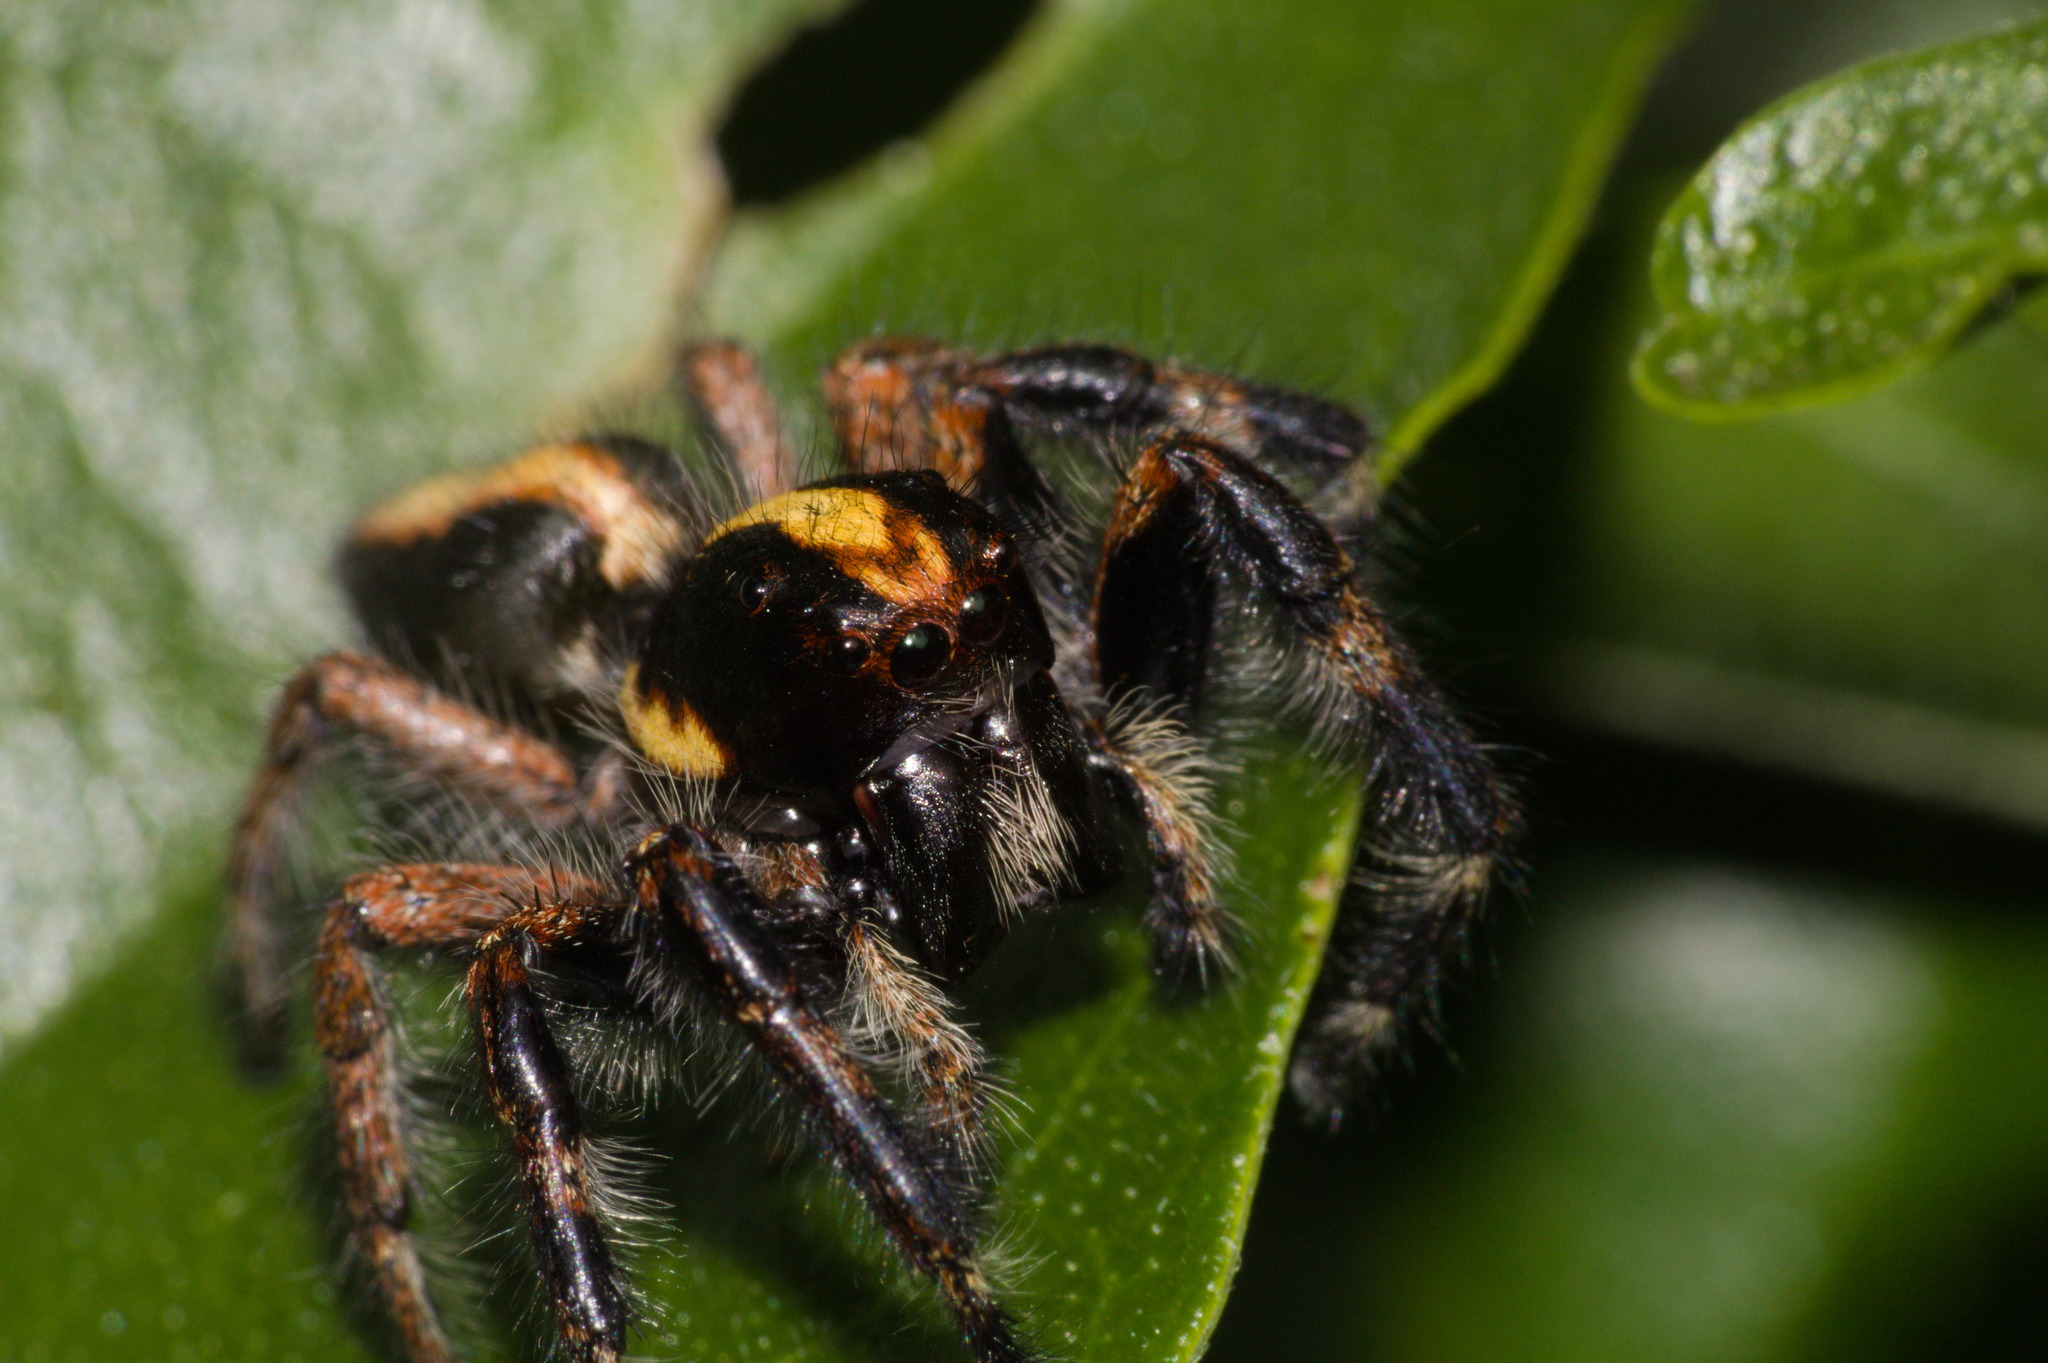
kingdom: Animalia
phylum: Arthropoda
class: Arachnida
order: Araneae
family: Salticidae
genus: Megafreya
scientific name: Megafreya sutrix
